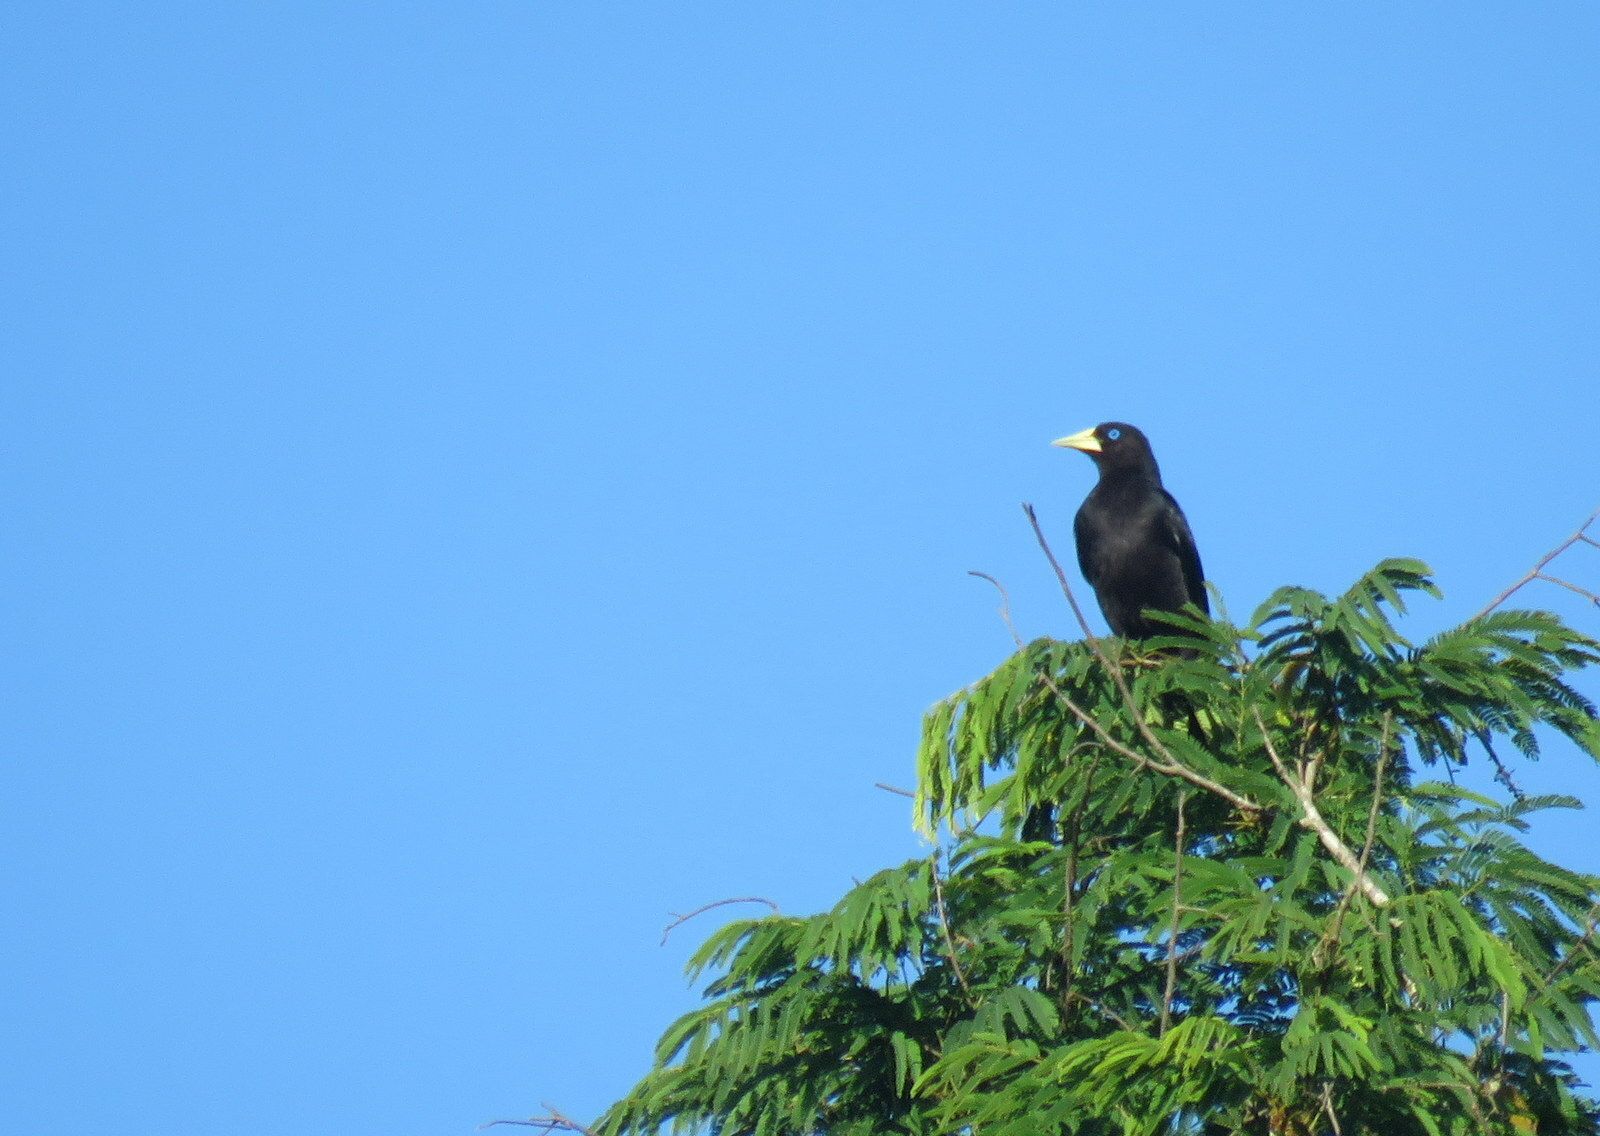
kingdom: Animalia
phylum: Chordata
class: Aves
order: Passeriformes
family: Icteridae
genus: Cacicus
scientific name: Cacicus haemorrhous
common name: Red-rumped cacique
